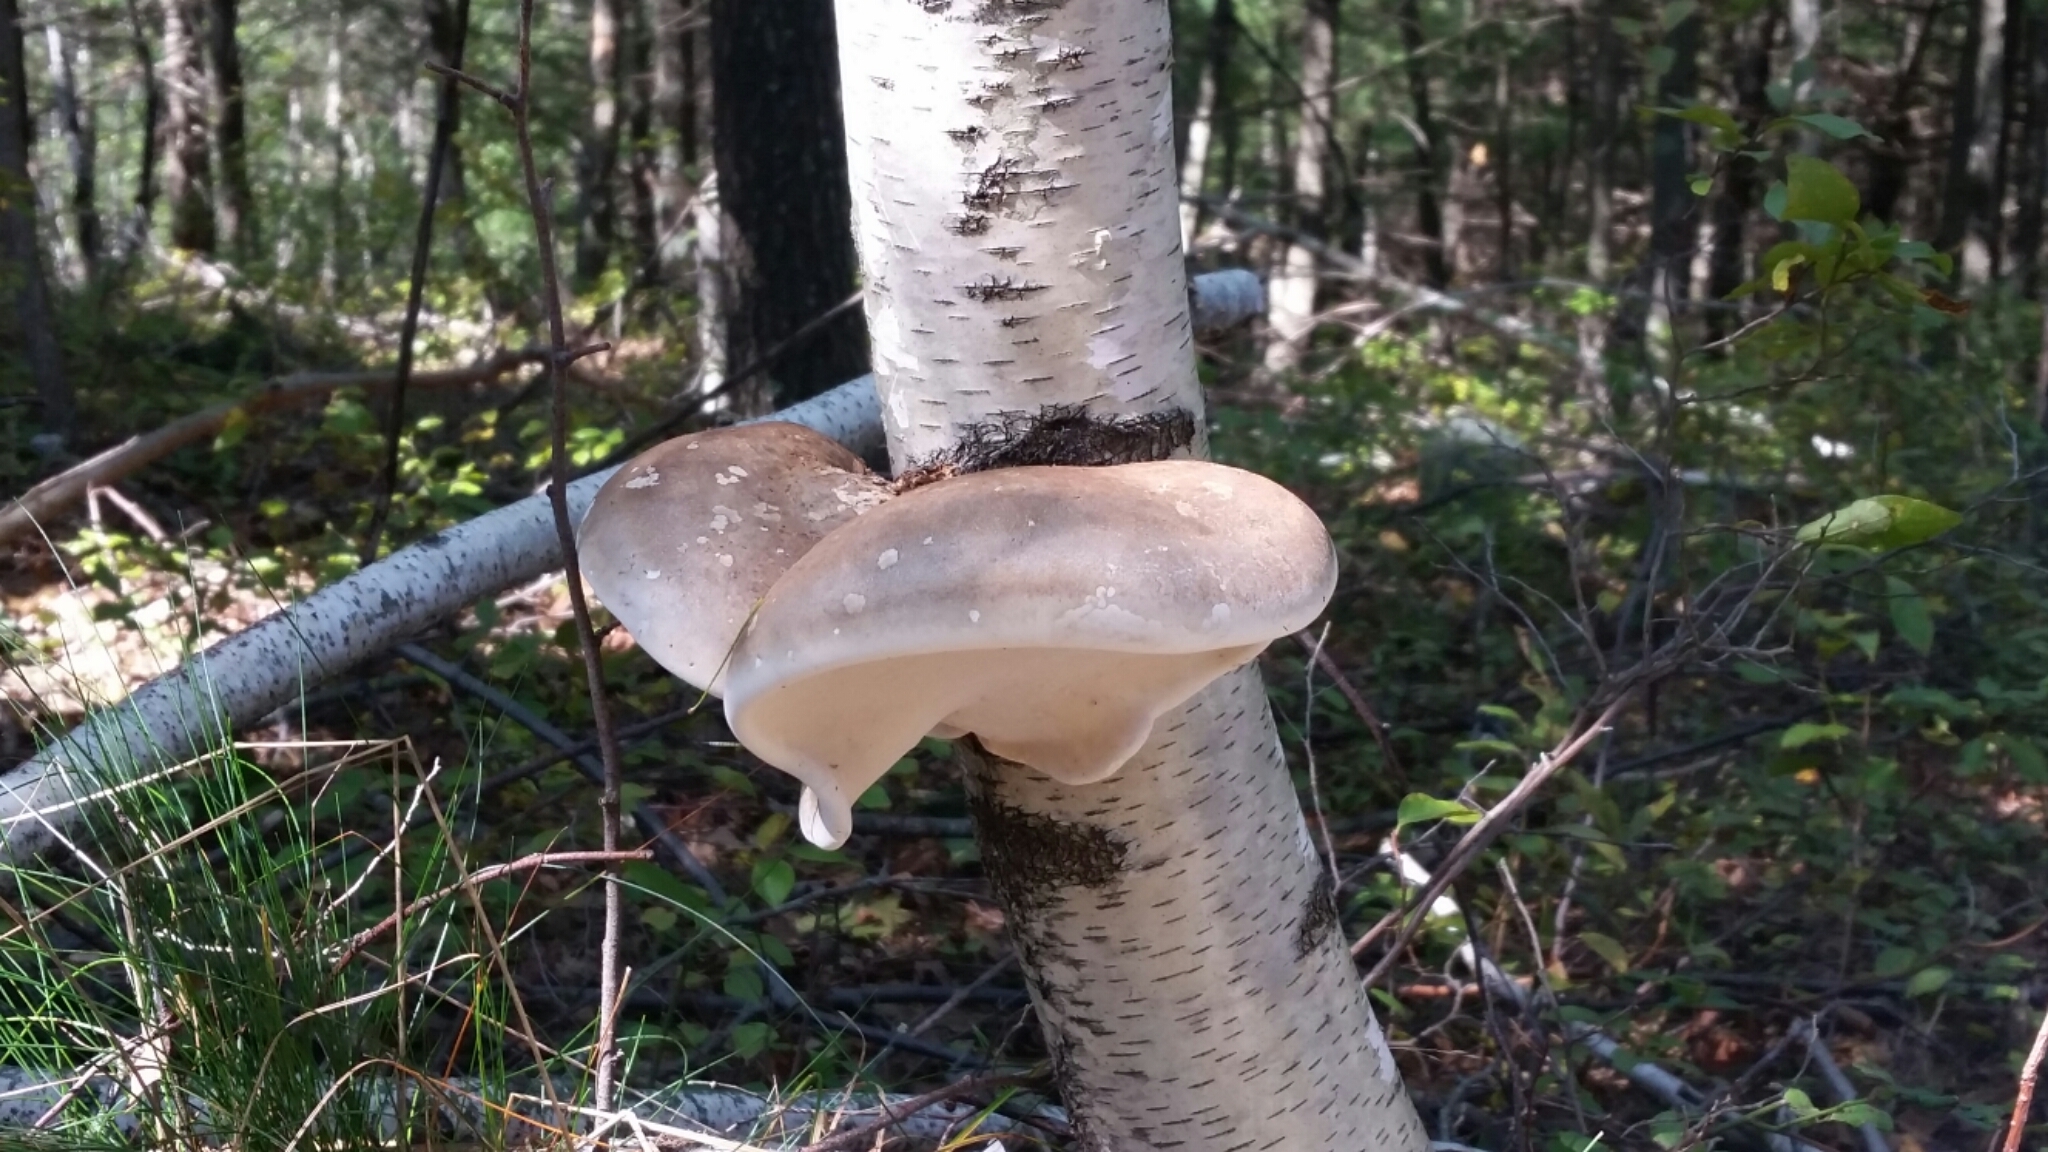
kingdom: Fungi
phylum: Basidiomycota
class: Agaricomycetes
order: Polyporales
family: Fomitopsidaceae
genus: Fomitopsis
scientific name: Fomitopsis betulina
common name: Birch polypore
